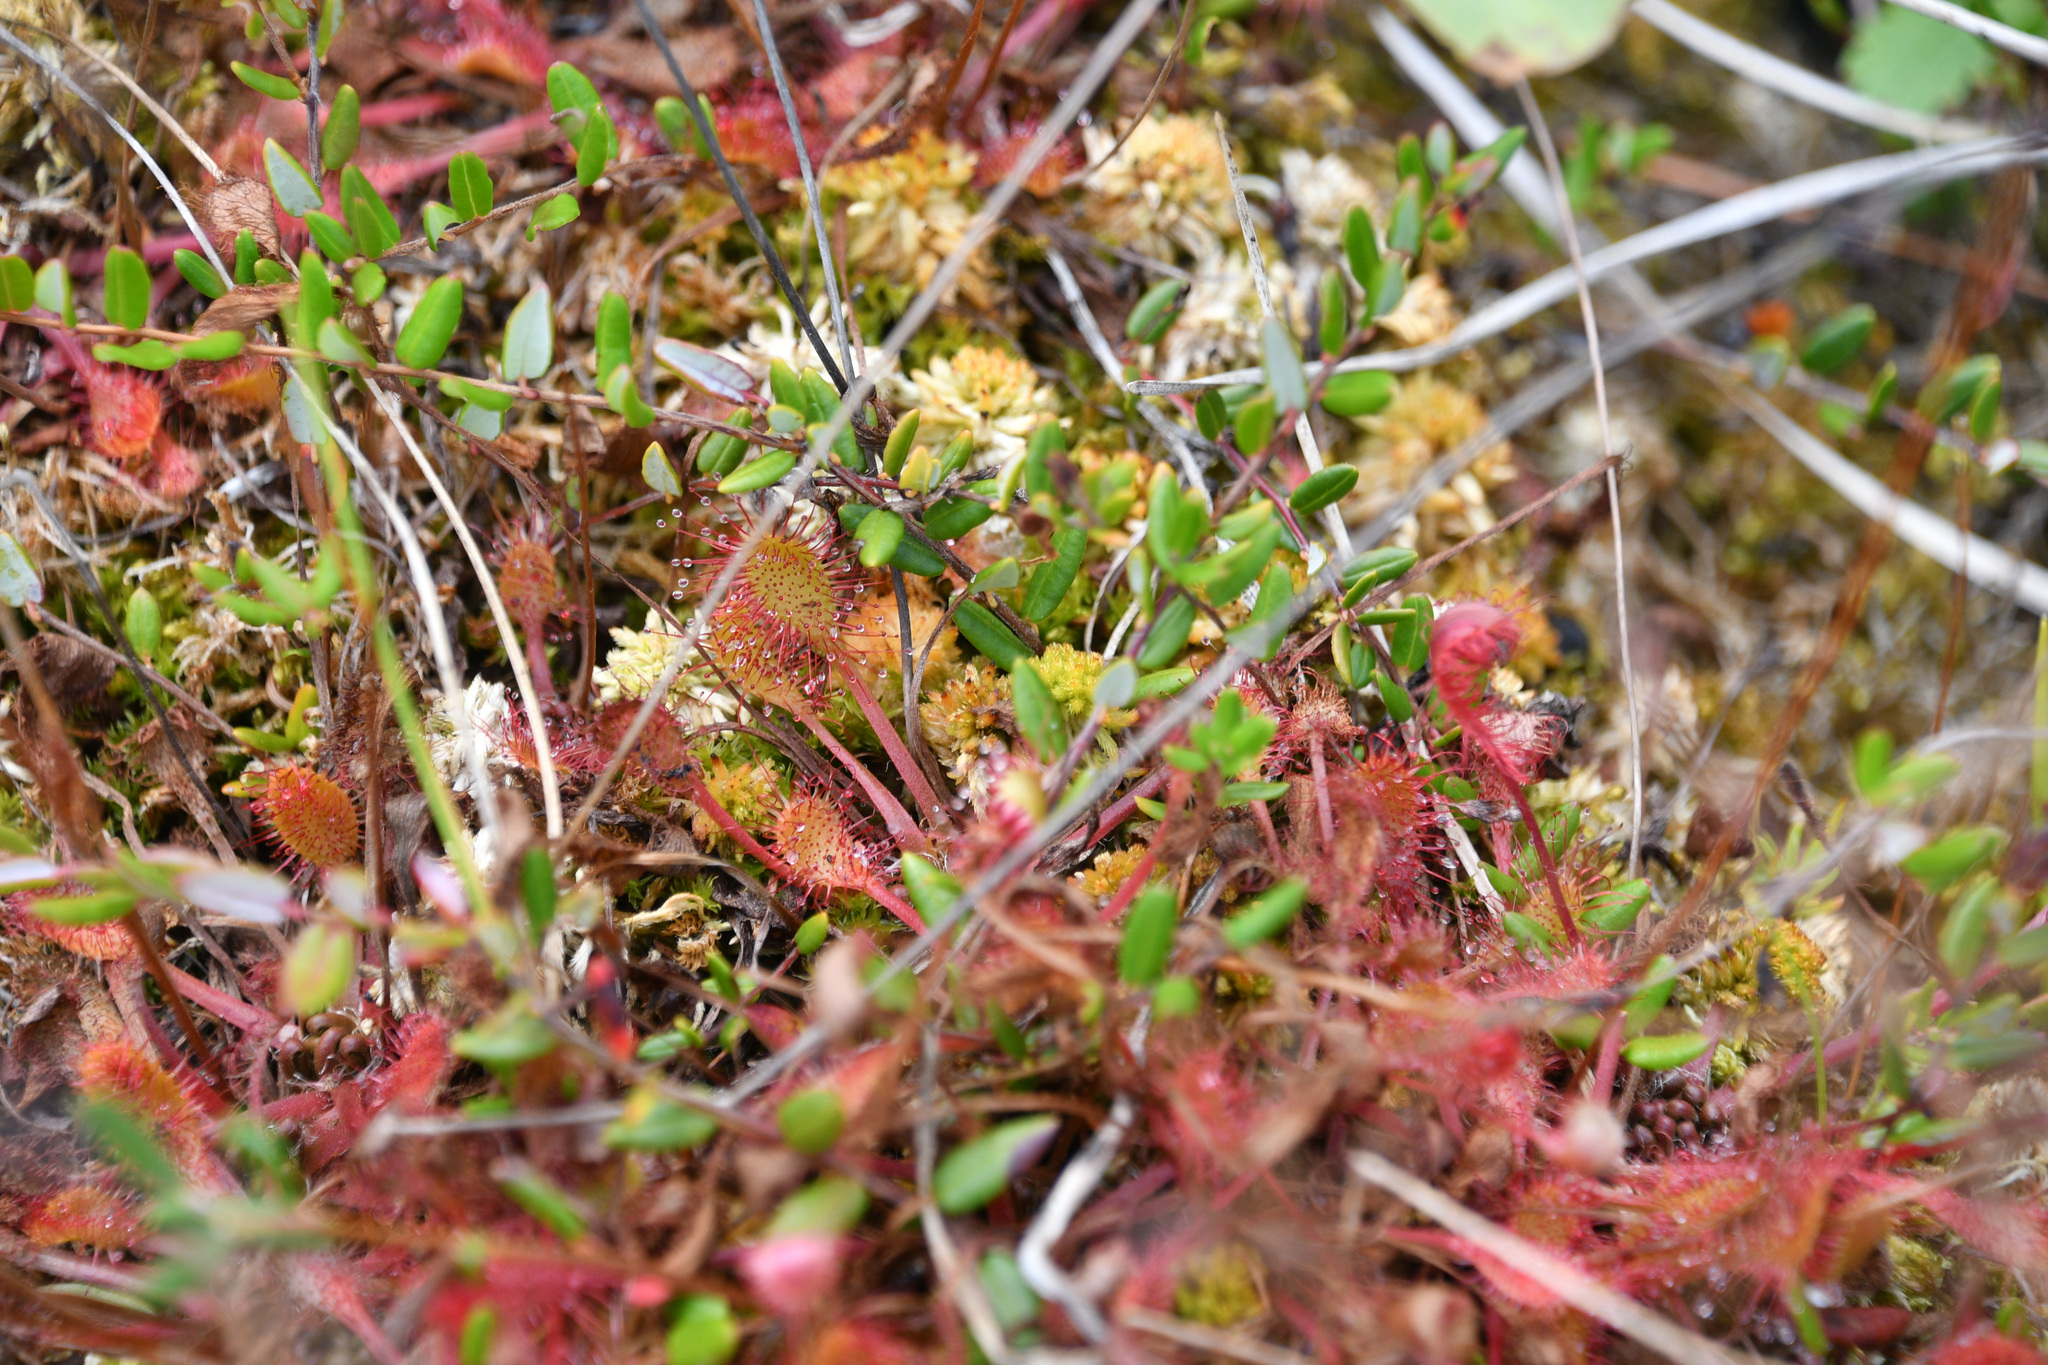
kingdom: Plantae
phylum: Tracheophyta
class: Magnoliopsida
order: Caryophyllales
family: Droseraceae
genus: Drosera
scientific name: Drosera obovata
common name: Ivan's paddle
